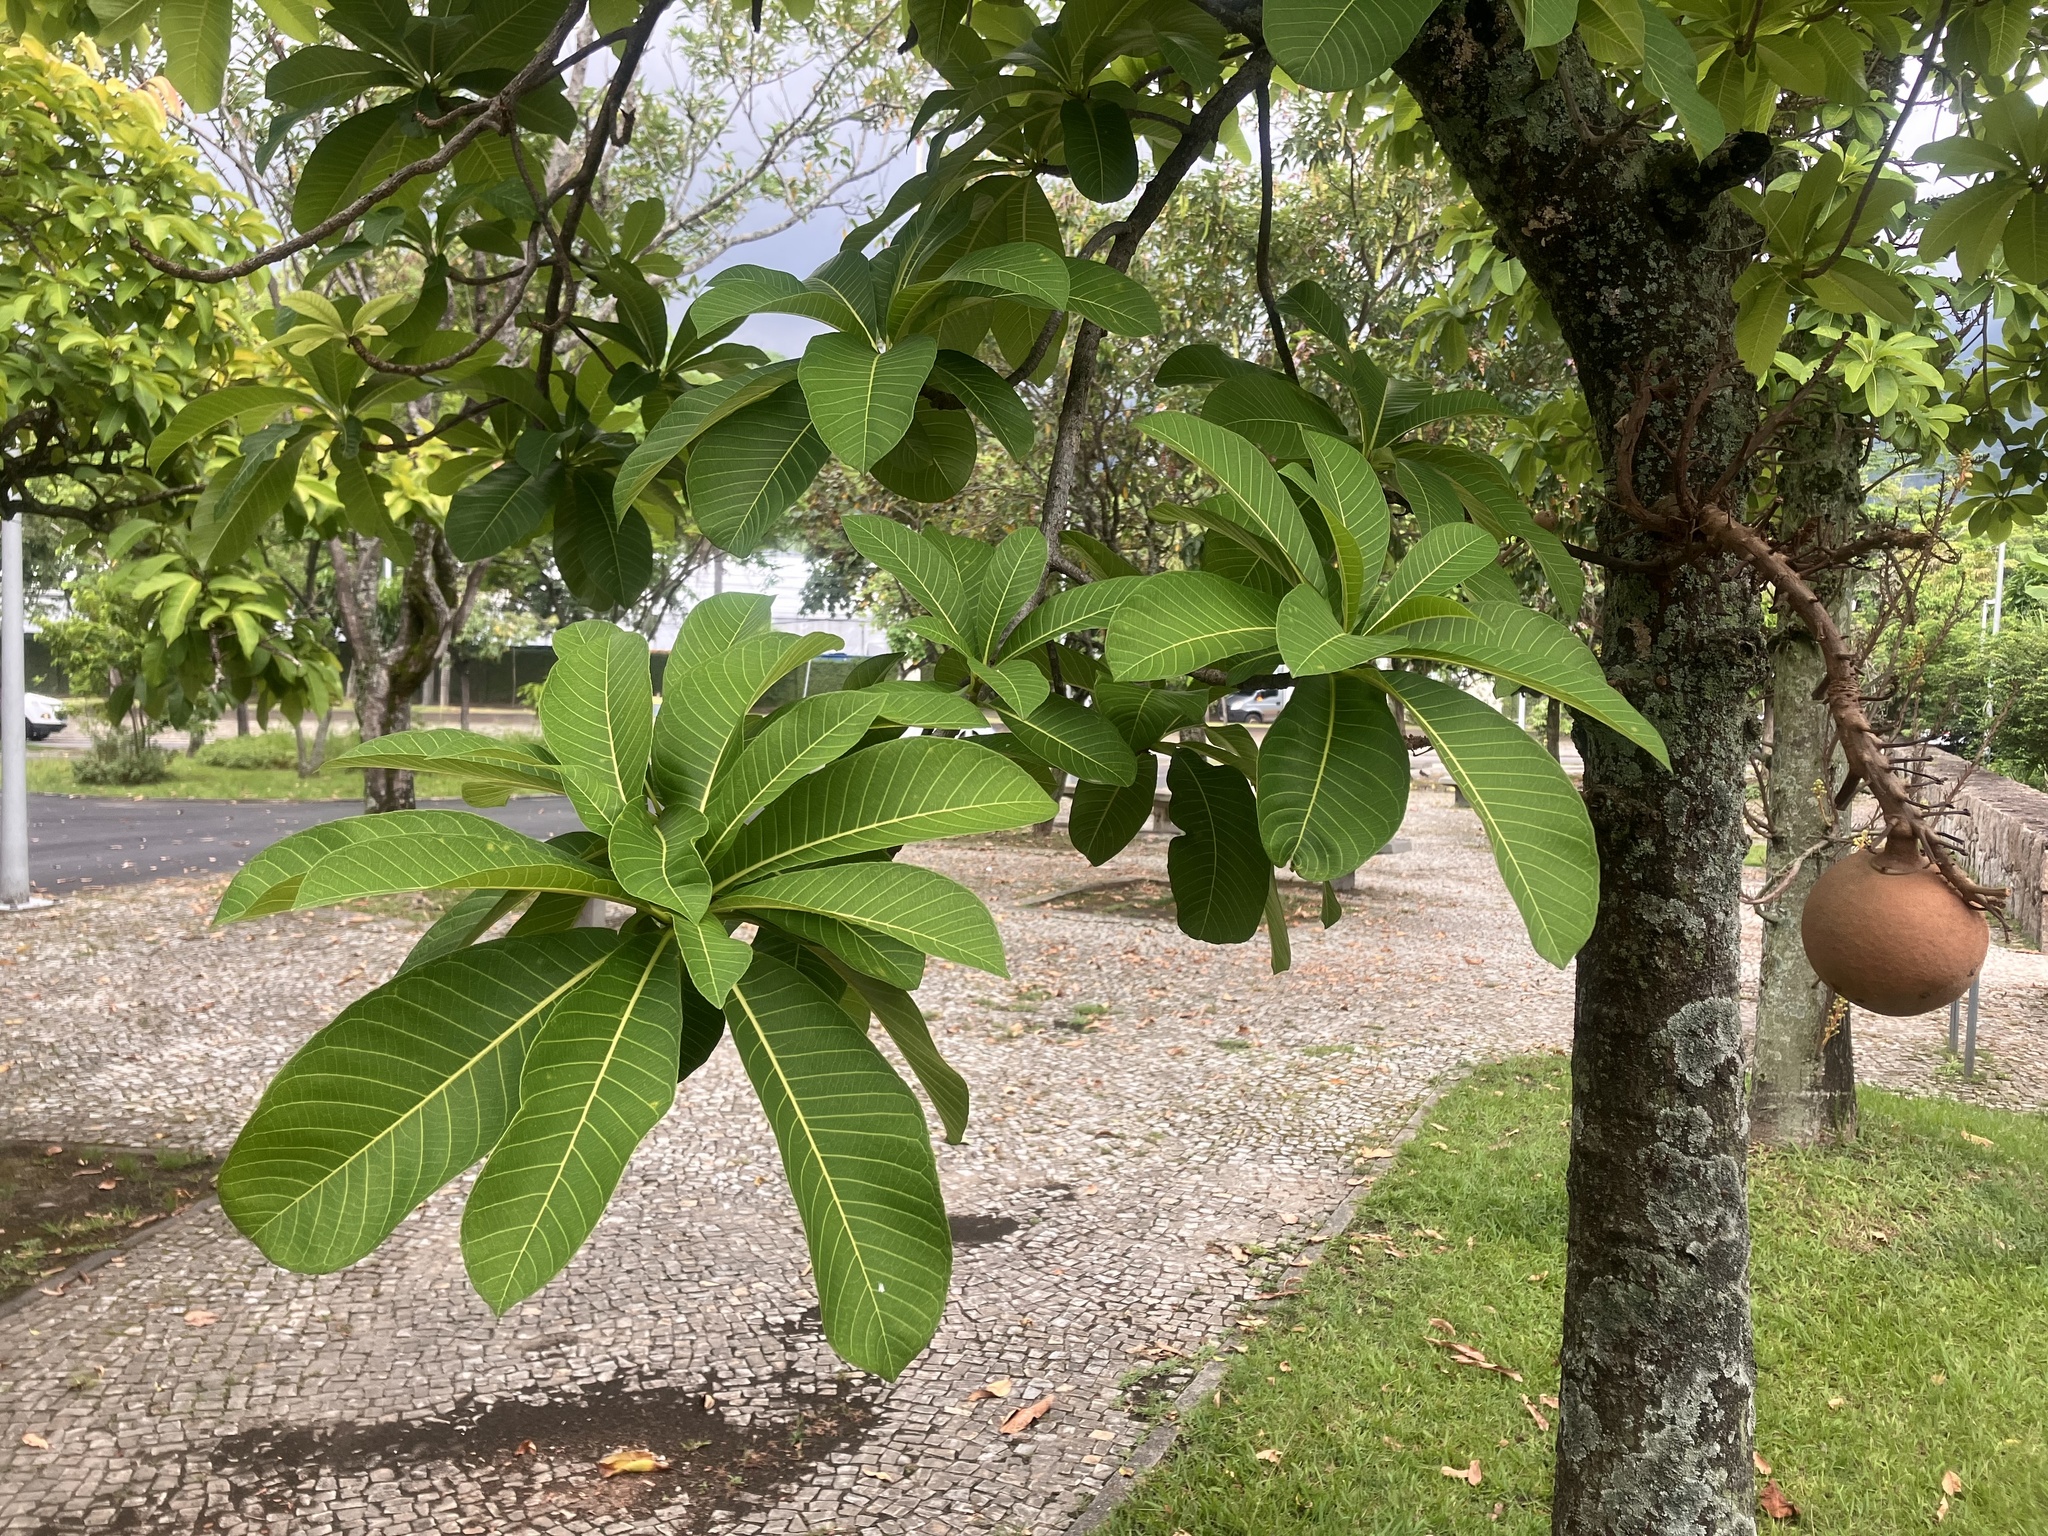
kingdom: Plantae
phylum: Tracheophyta
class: Magnoliopsida
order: Ericales
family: Lecythidaceae
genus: Couroupita
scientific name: Couroupita guianensis
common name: Cannonball tree
